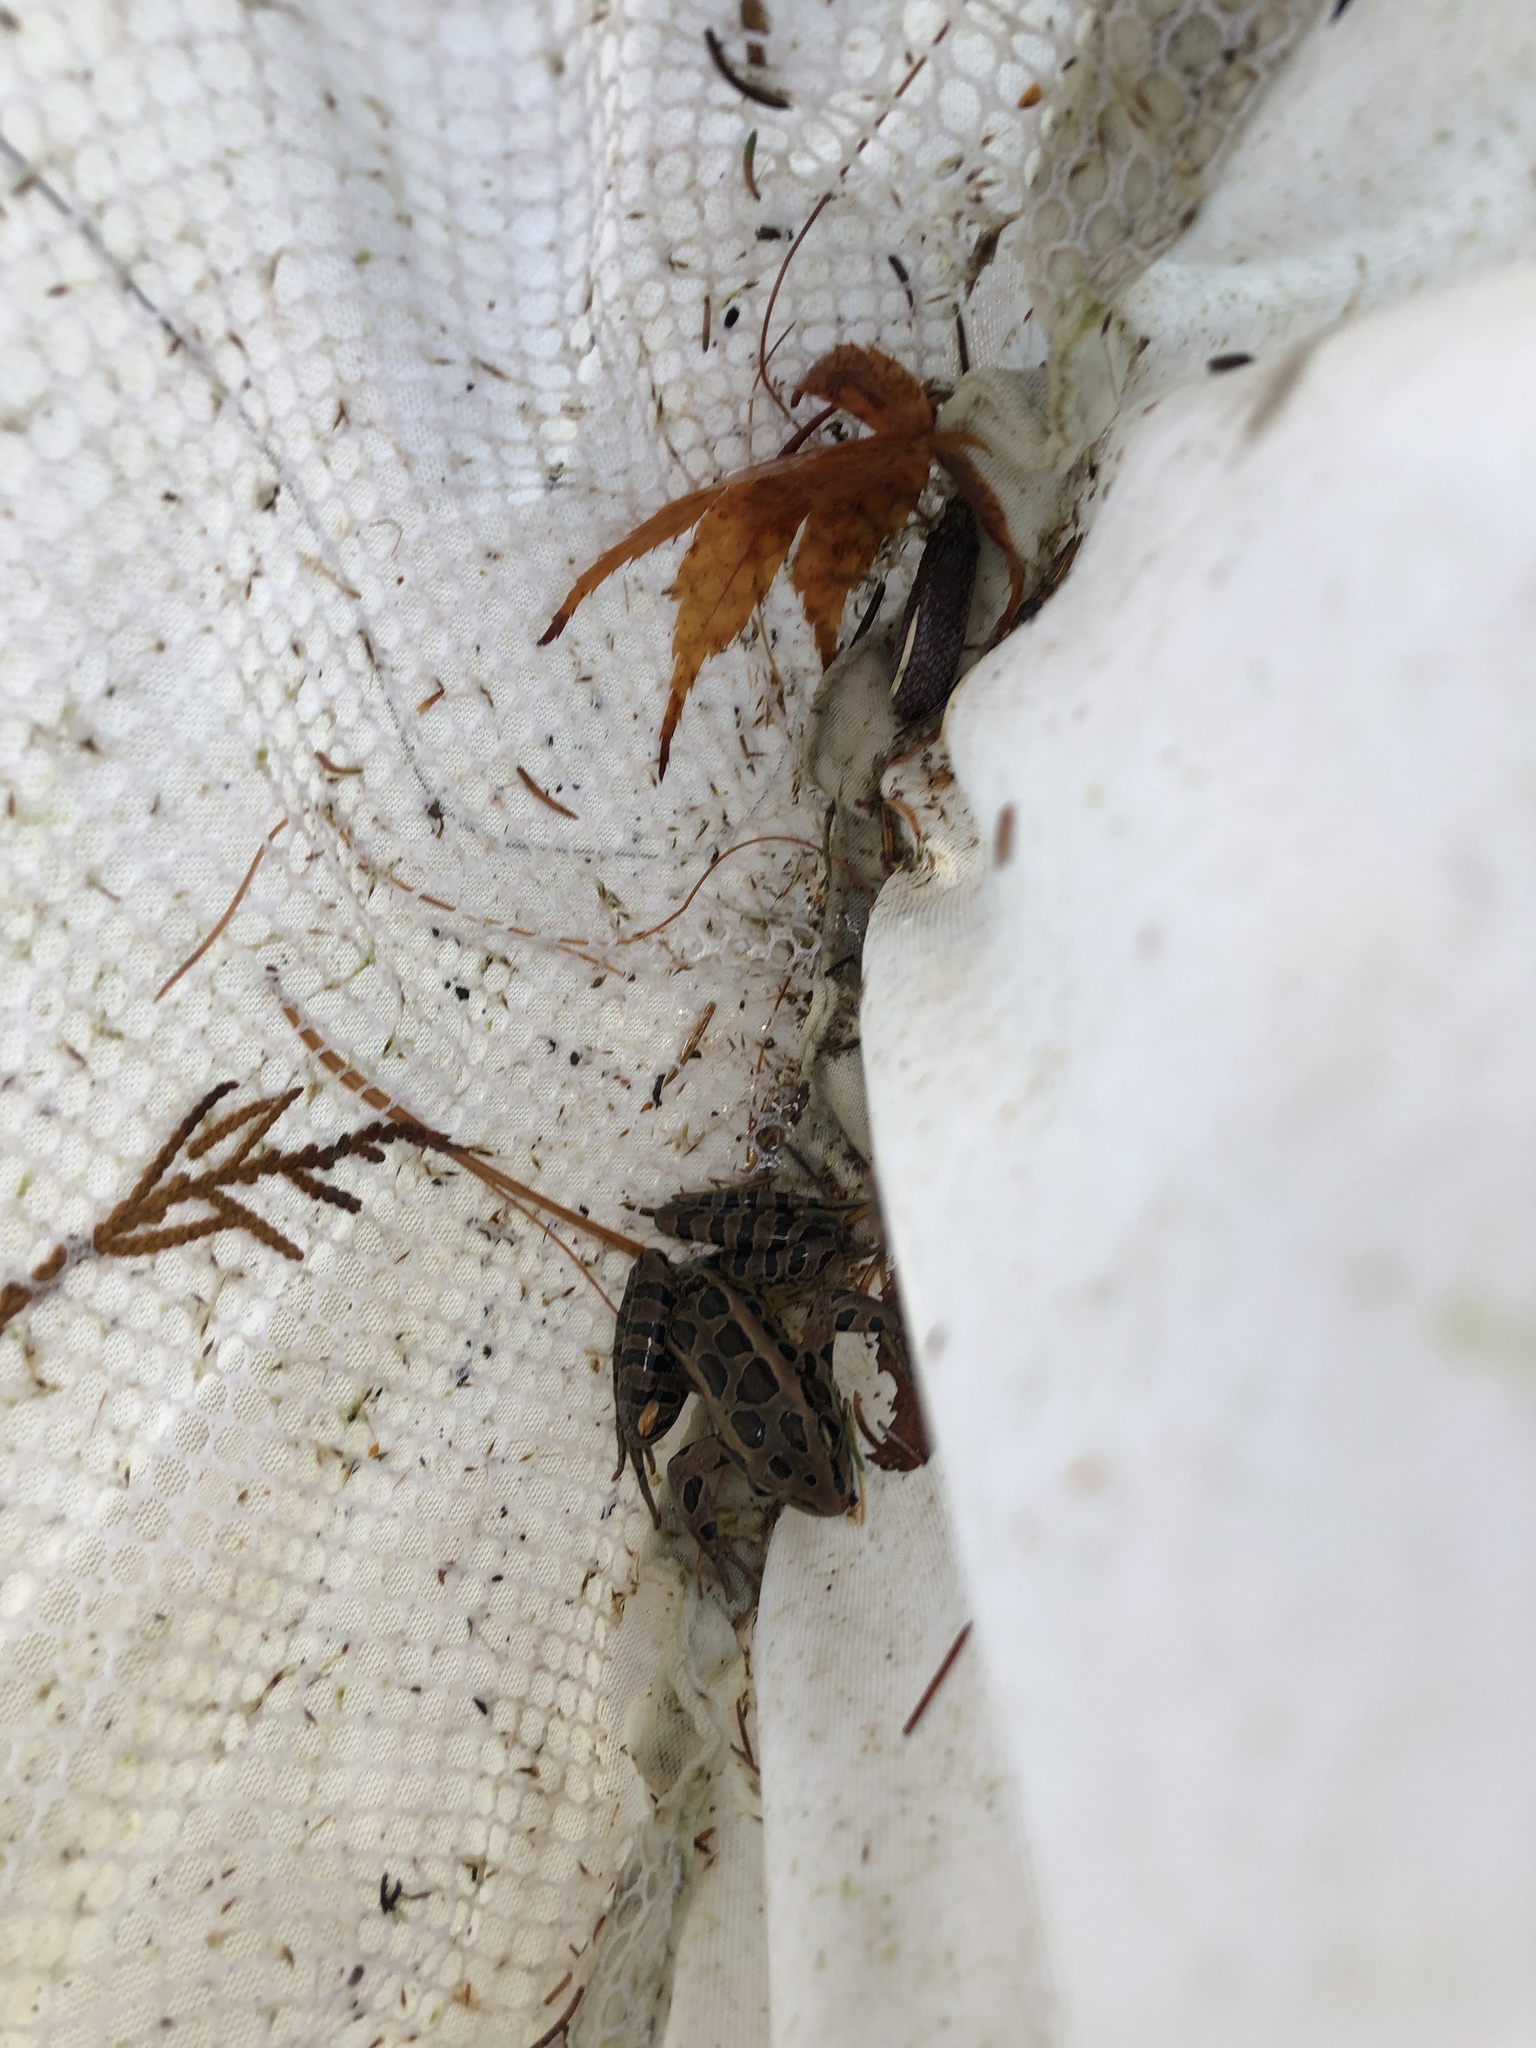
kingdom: Animalia
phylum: Chordata
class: Amphibia
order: Anura
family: Ranidae
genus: Lithobates
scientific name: Lithobates palustris
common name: Pickerel frog
